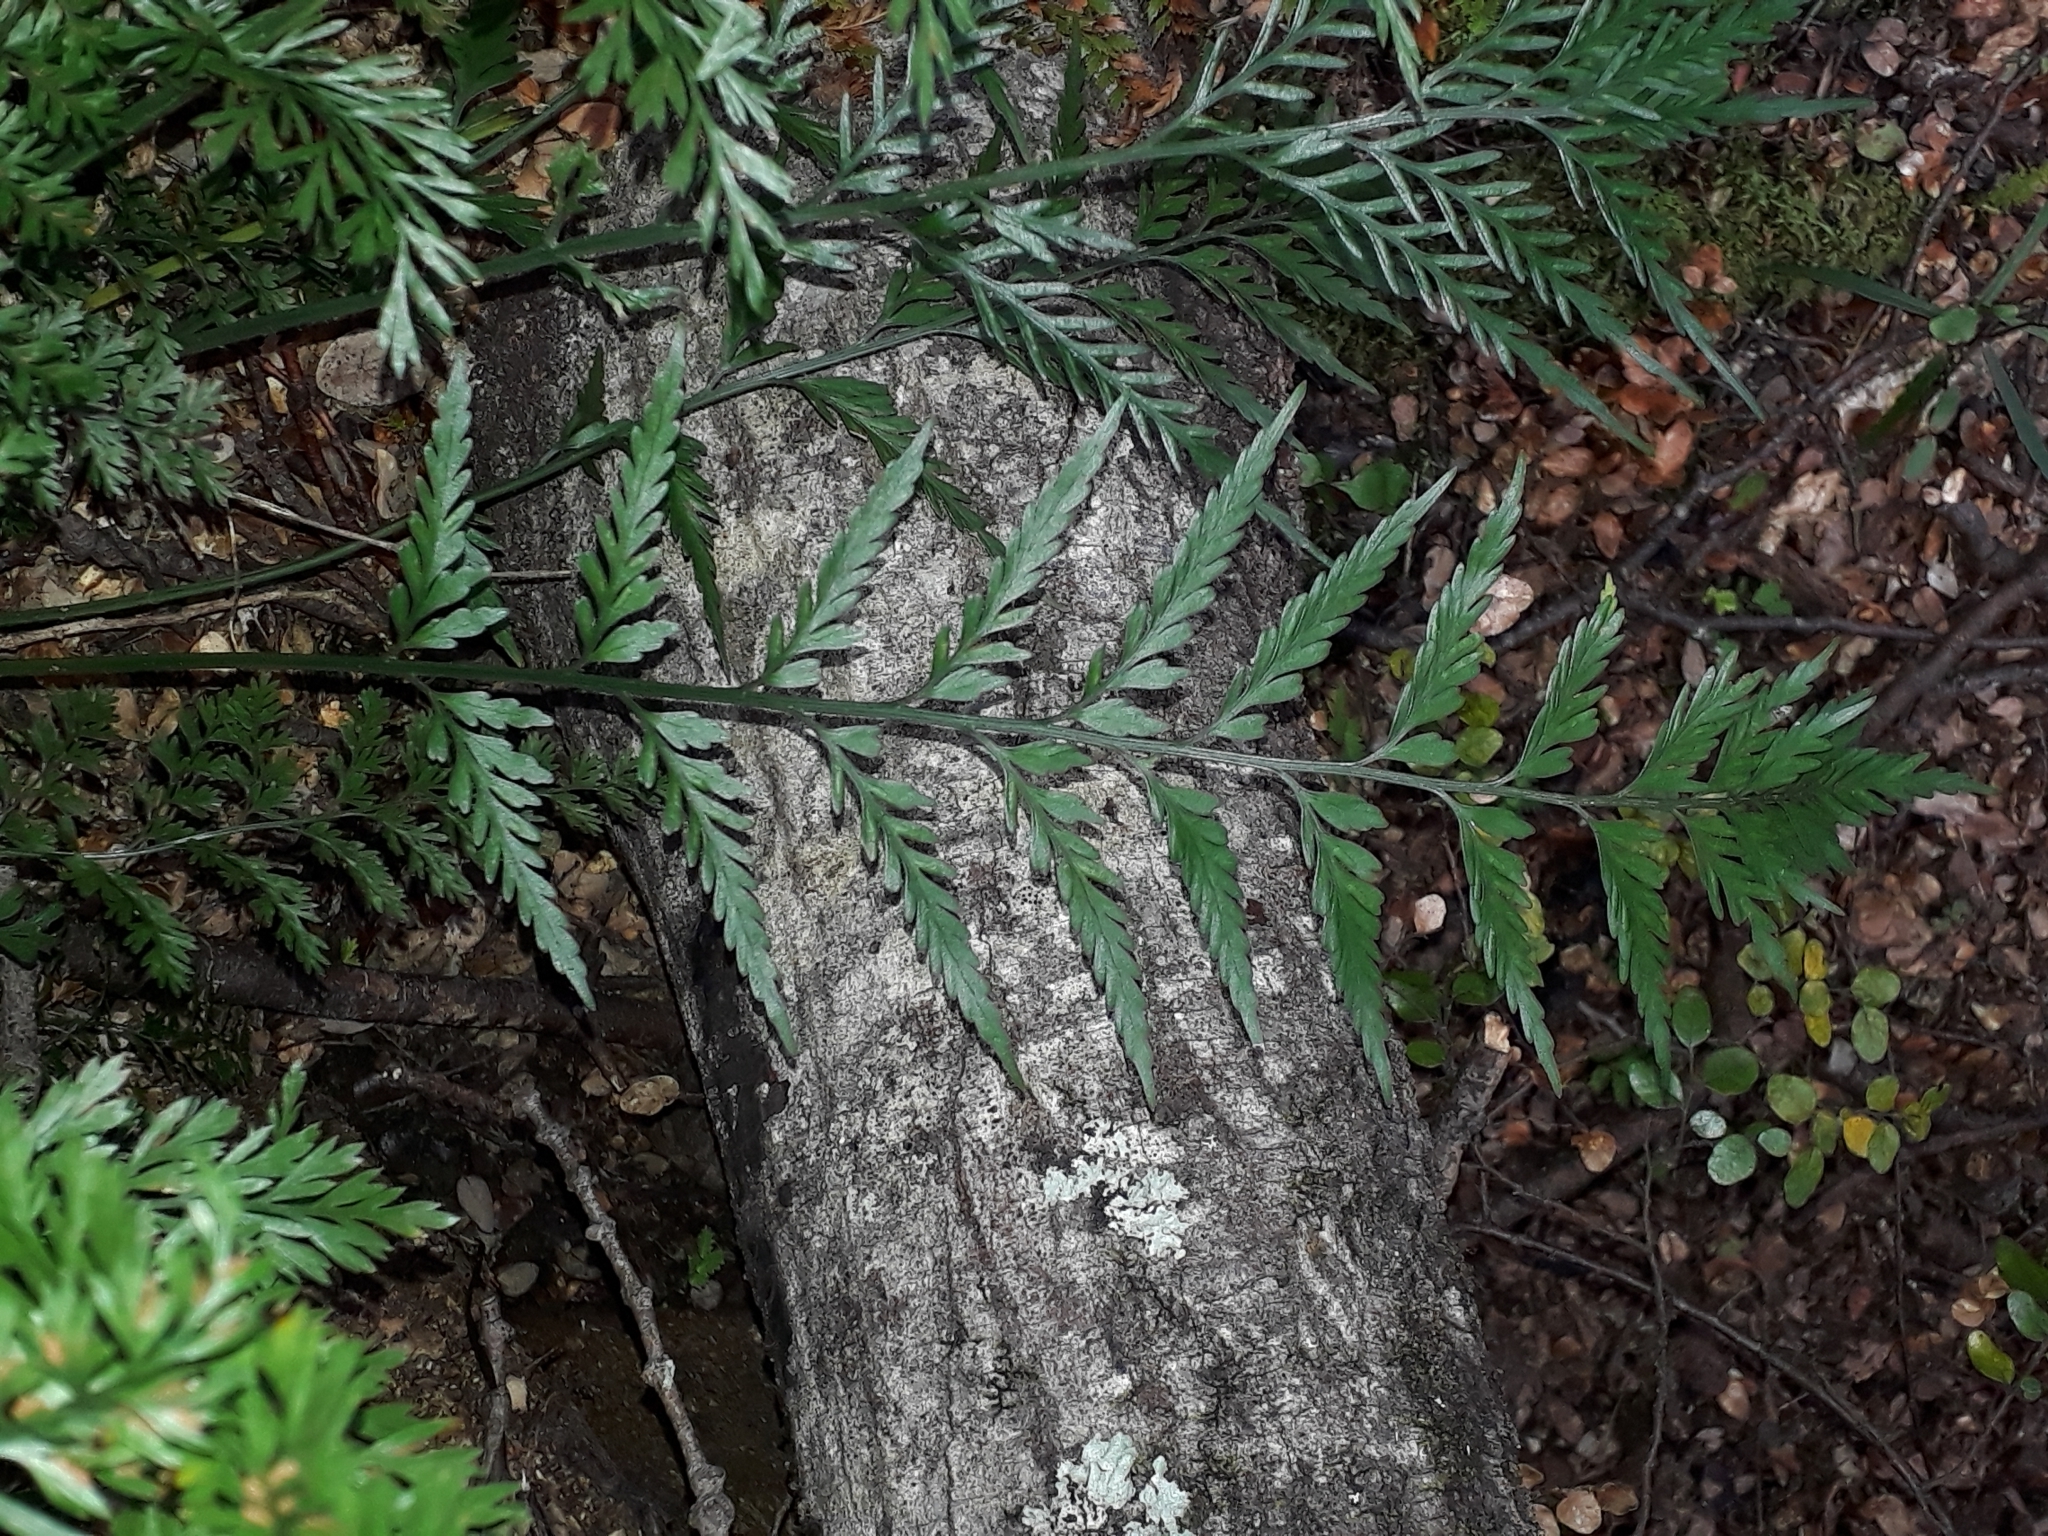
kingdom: Plantae
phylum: Tracheophyta
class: Polypodiopsida
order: Polypodiales
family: Aspleniaceae
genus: Asplenium
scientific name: Asplenium appendiculatum
